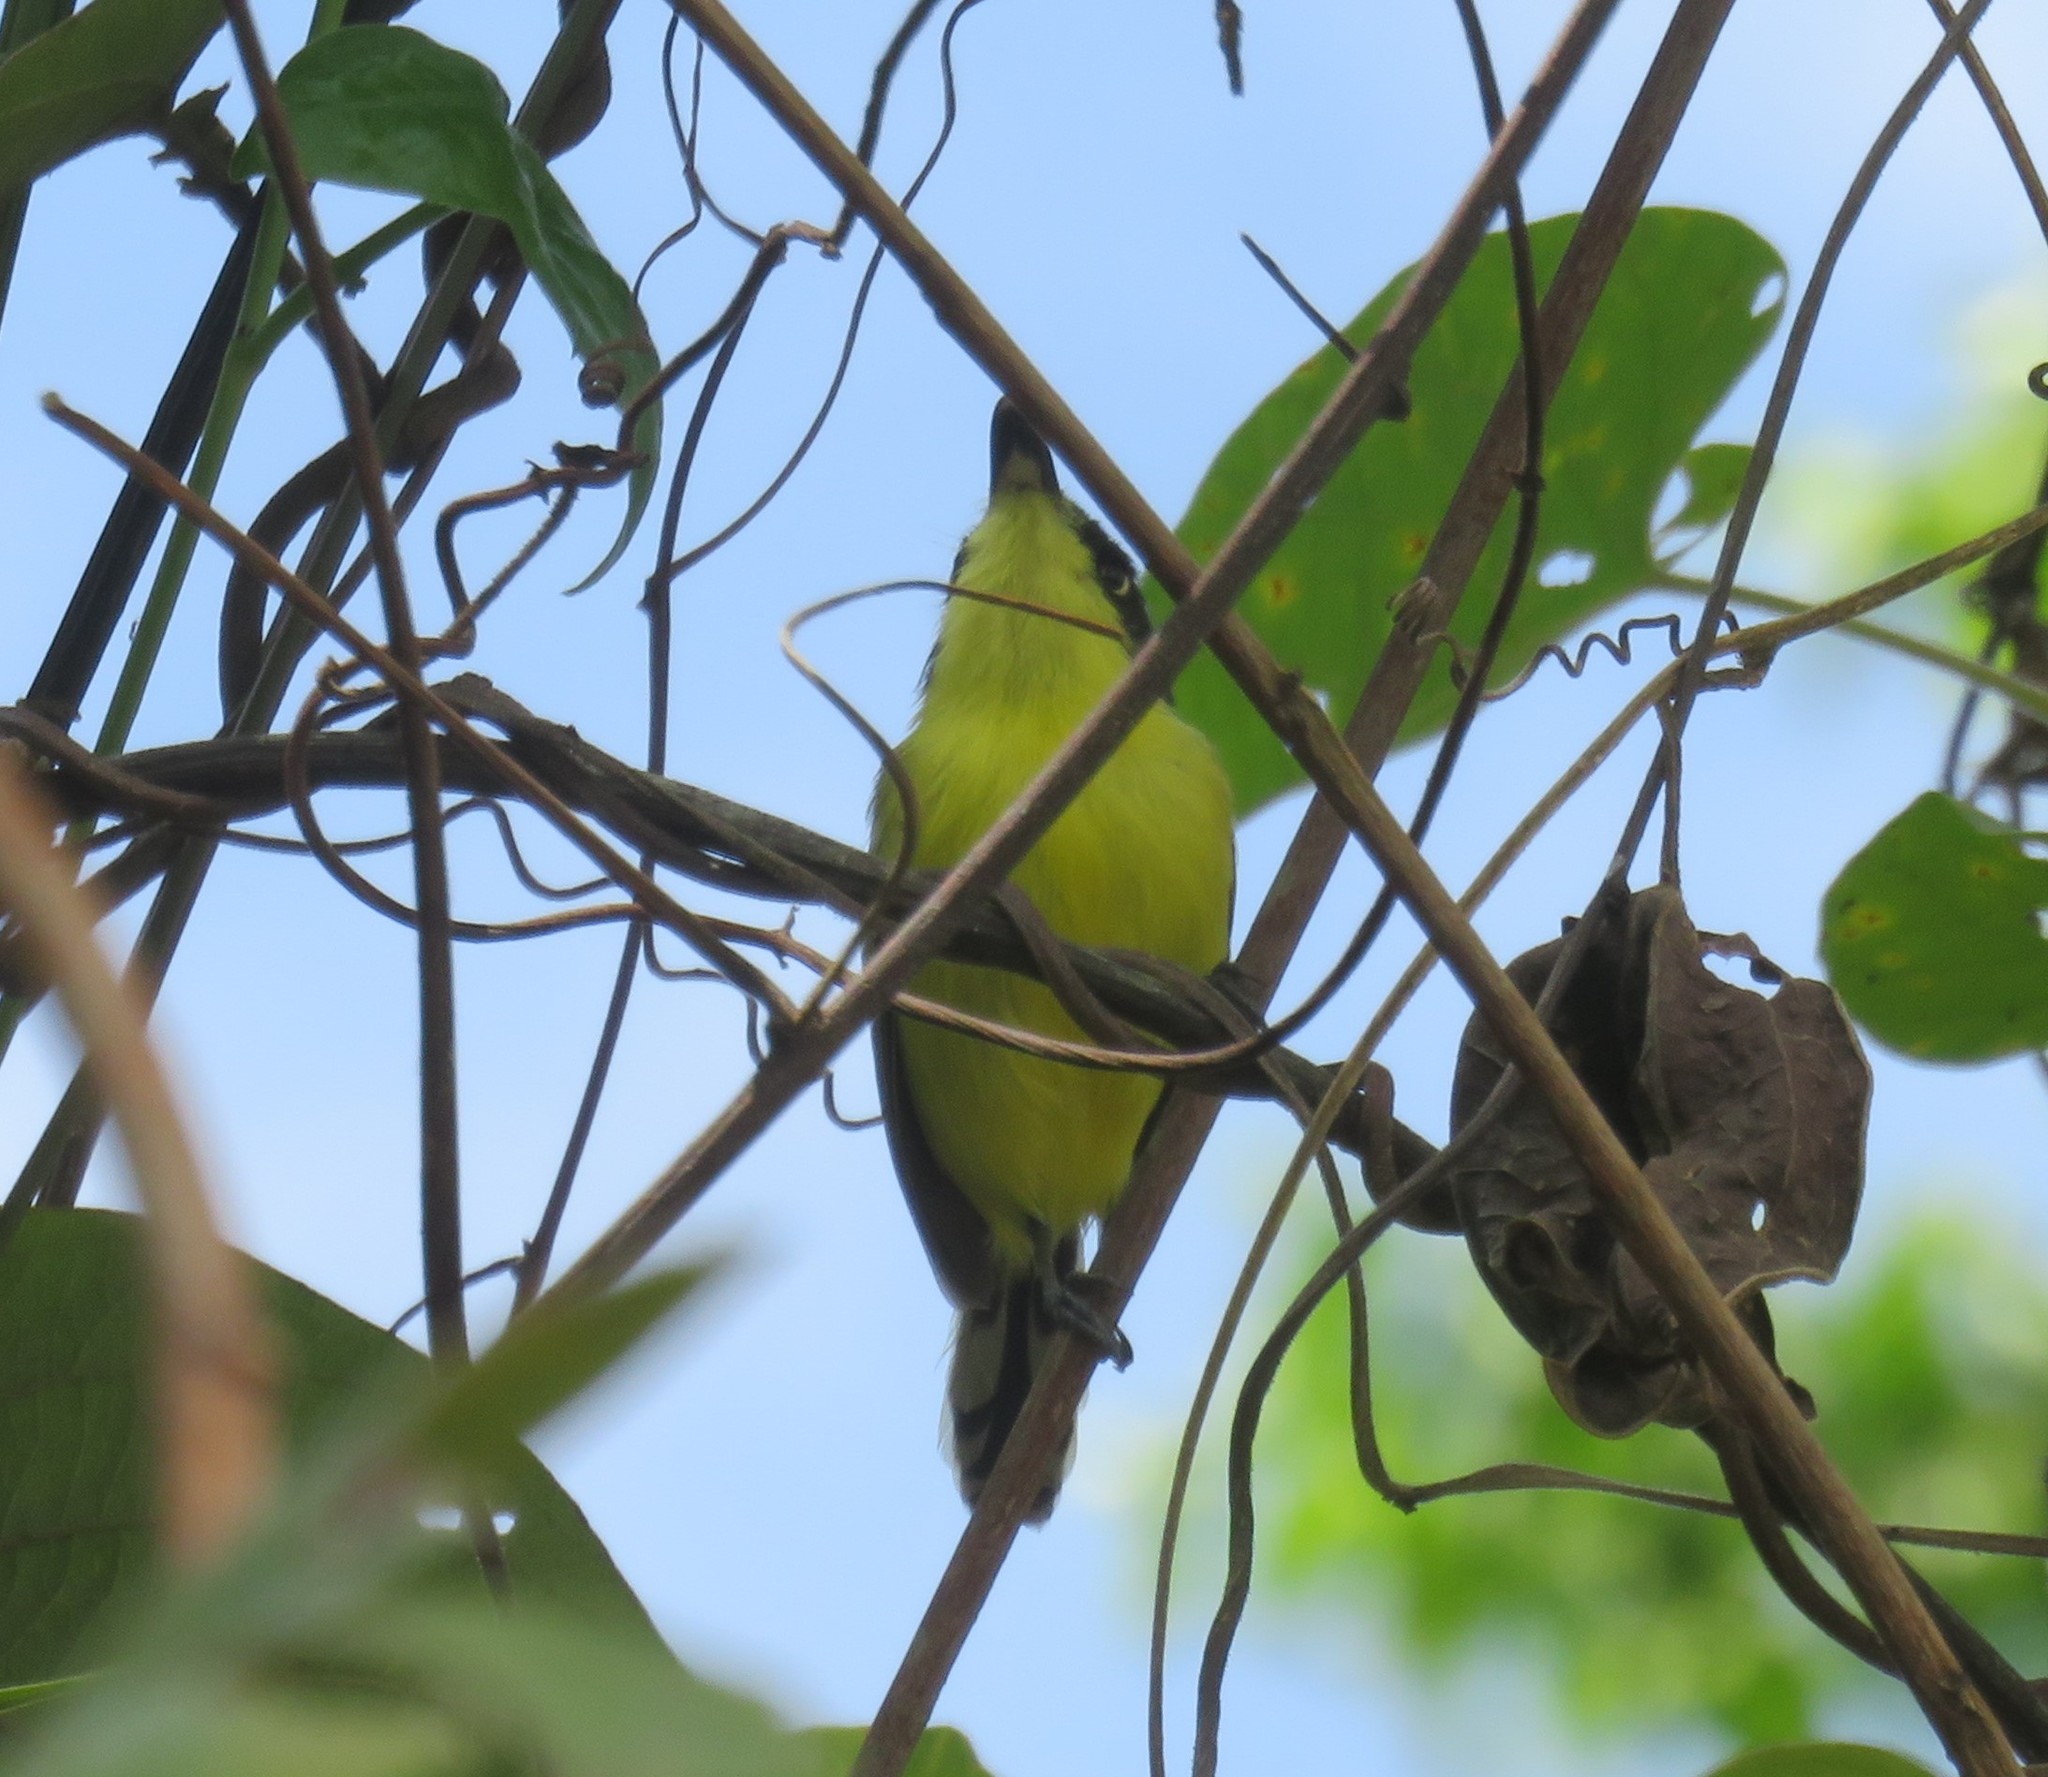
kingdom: Animalia
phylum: Chordata
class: Aves
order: Passeriformes
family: Tyrannidae
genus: Todirostrum
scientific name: Todirostrum cinereum
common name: Common tody-flycatcher
